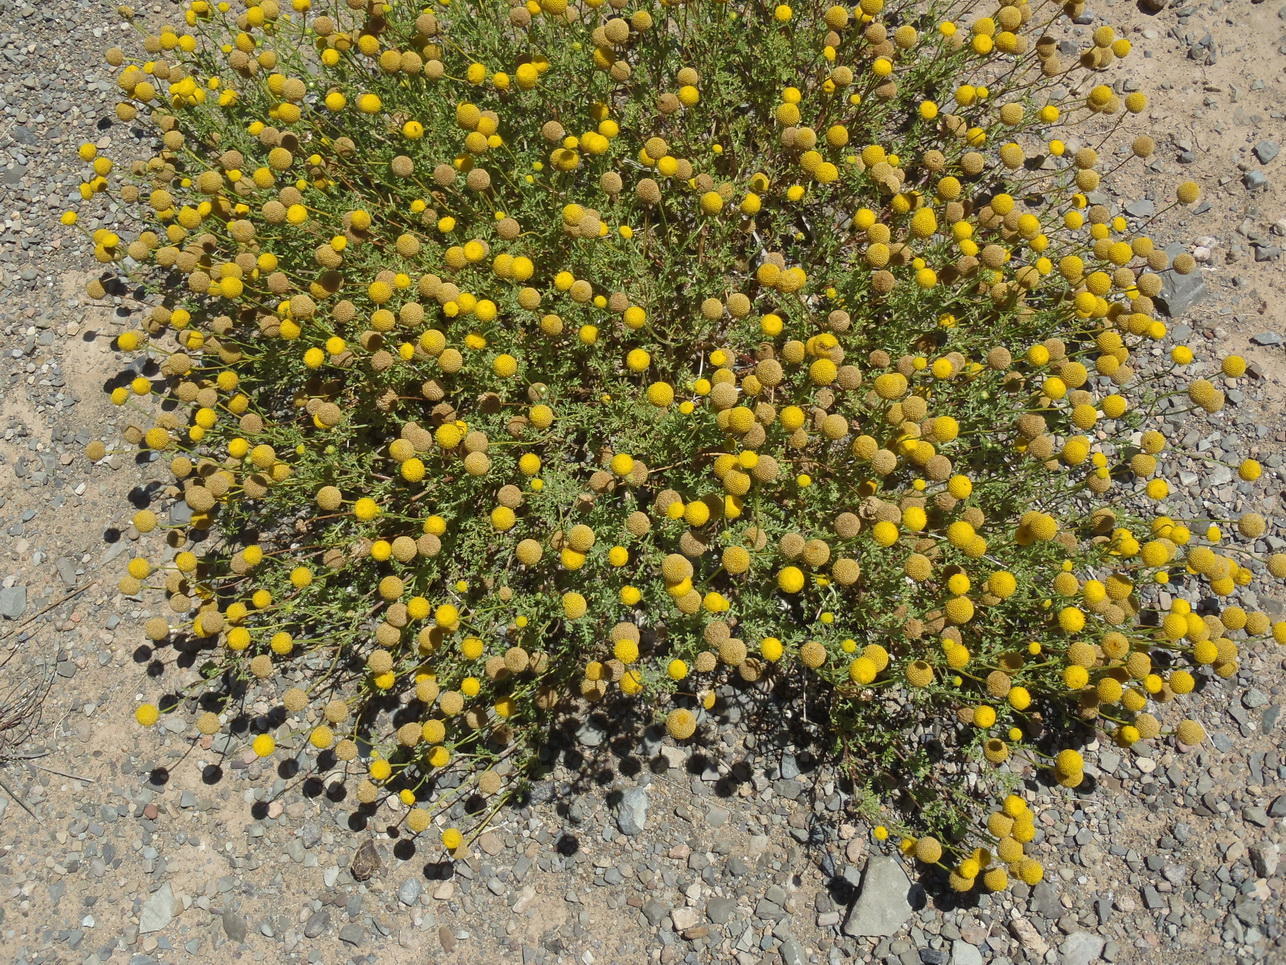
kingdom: Plantae
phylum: Tracheophyta
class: Magnoliopsida
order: Asterales
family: Asteraceae
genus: Oncosiphon
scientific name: Oncosiphon pilulifer
